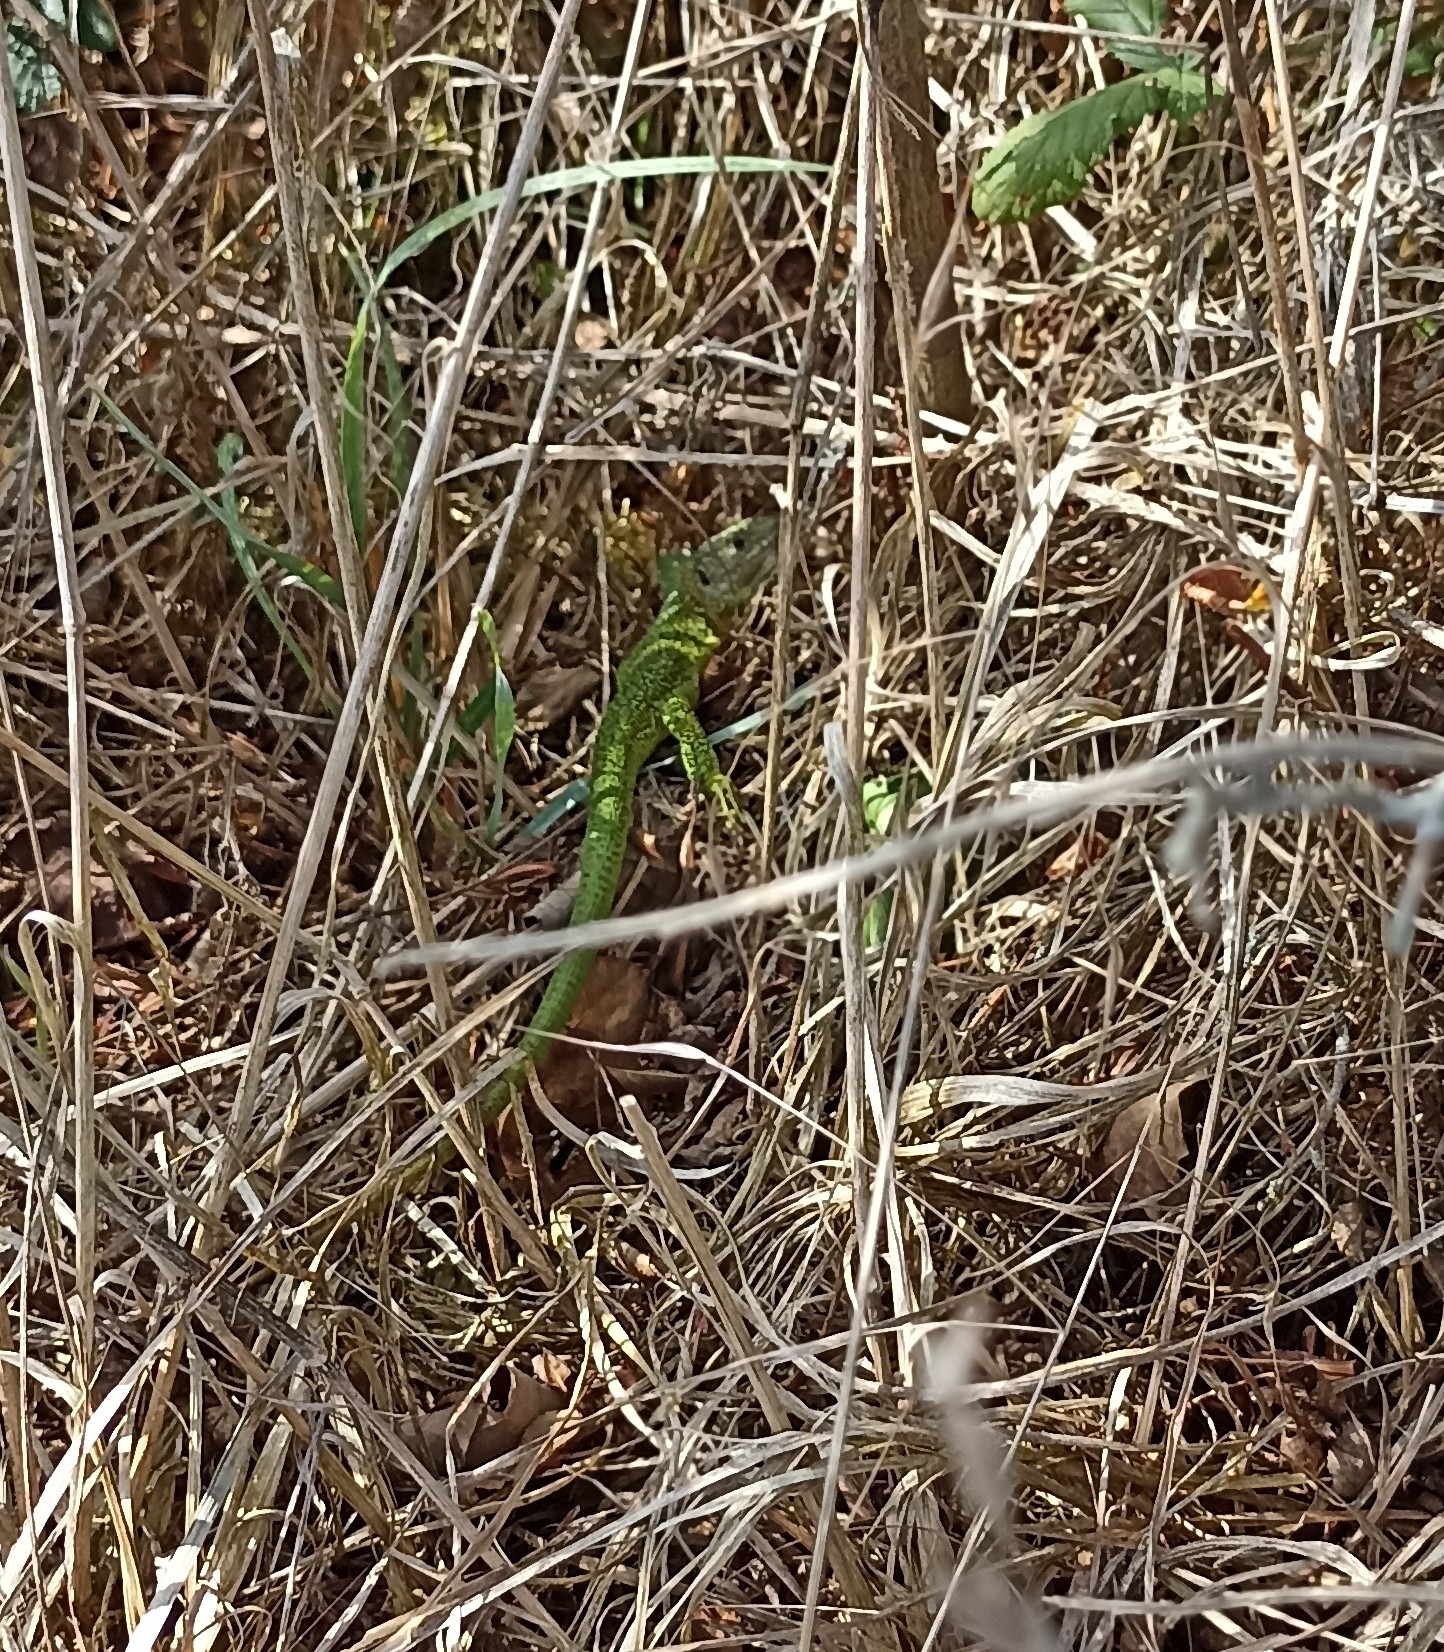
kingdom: Animalia
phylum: Chordata
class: Squamata
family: Lacertidae
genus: Lacerta
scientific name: Lacerta bilineata
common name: Western green lizard
